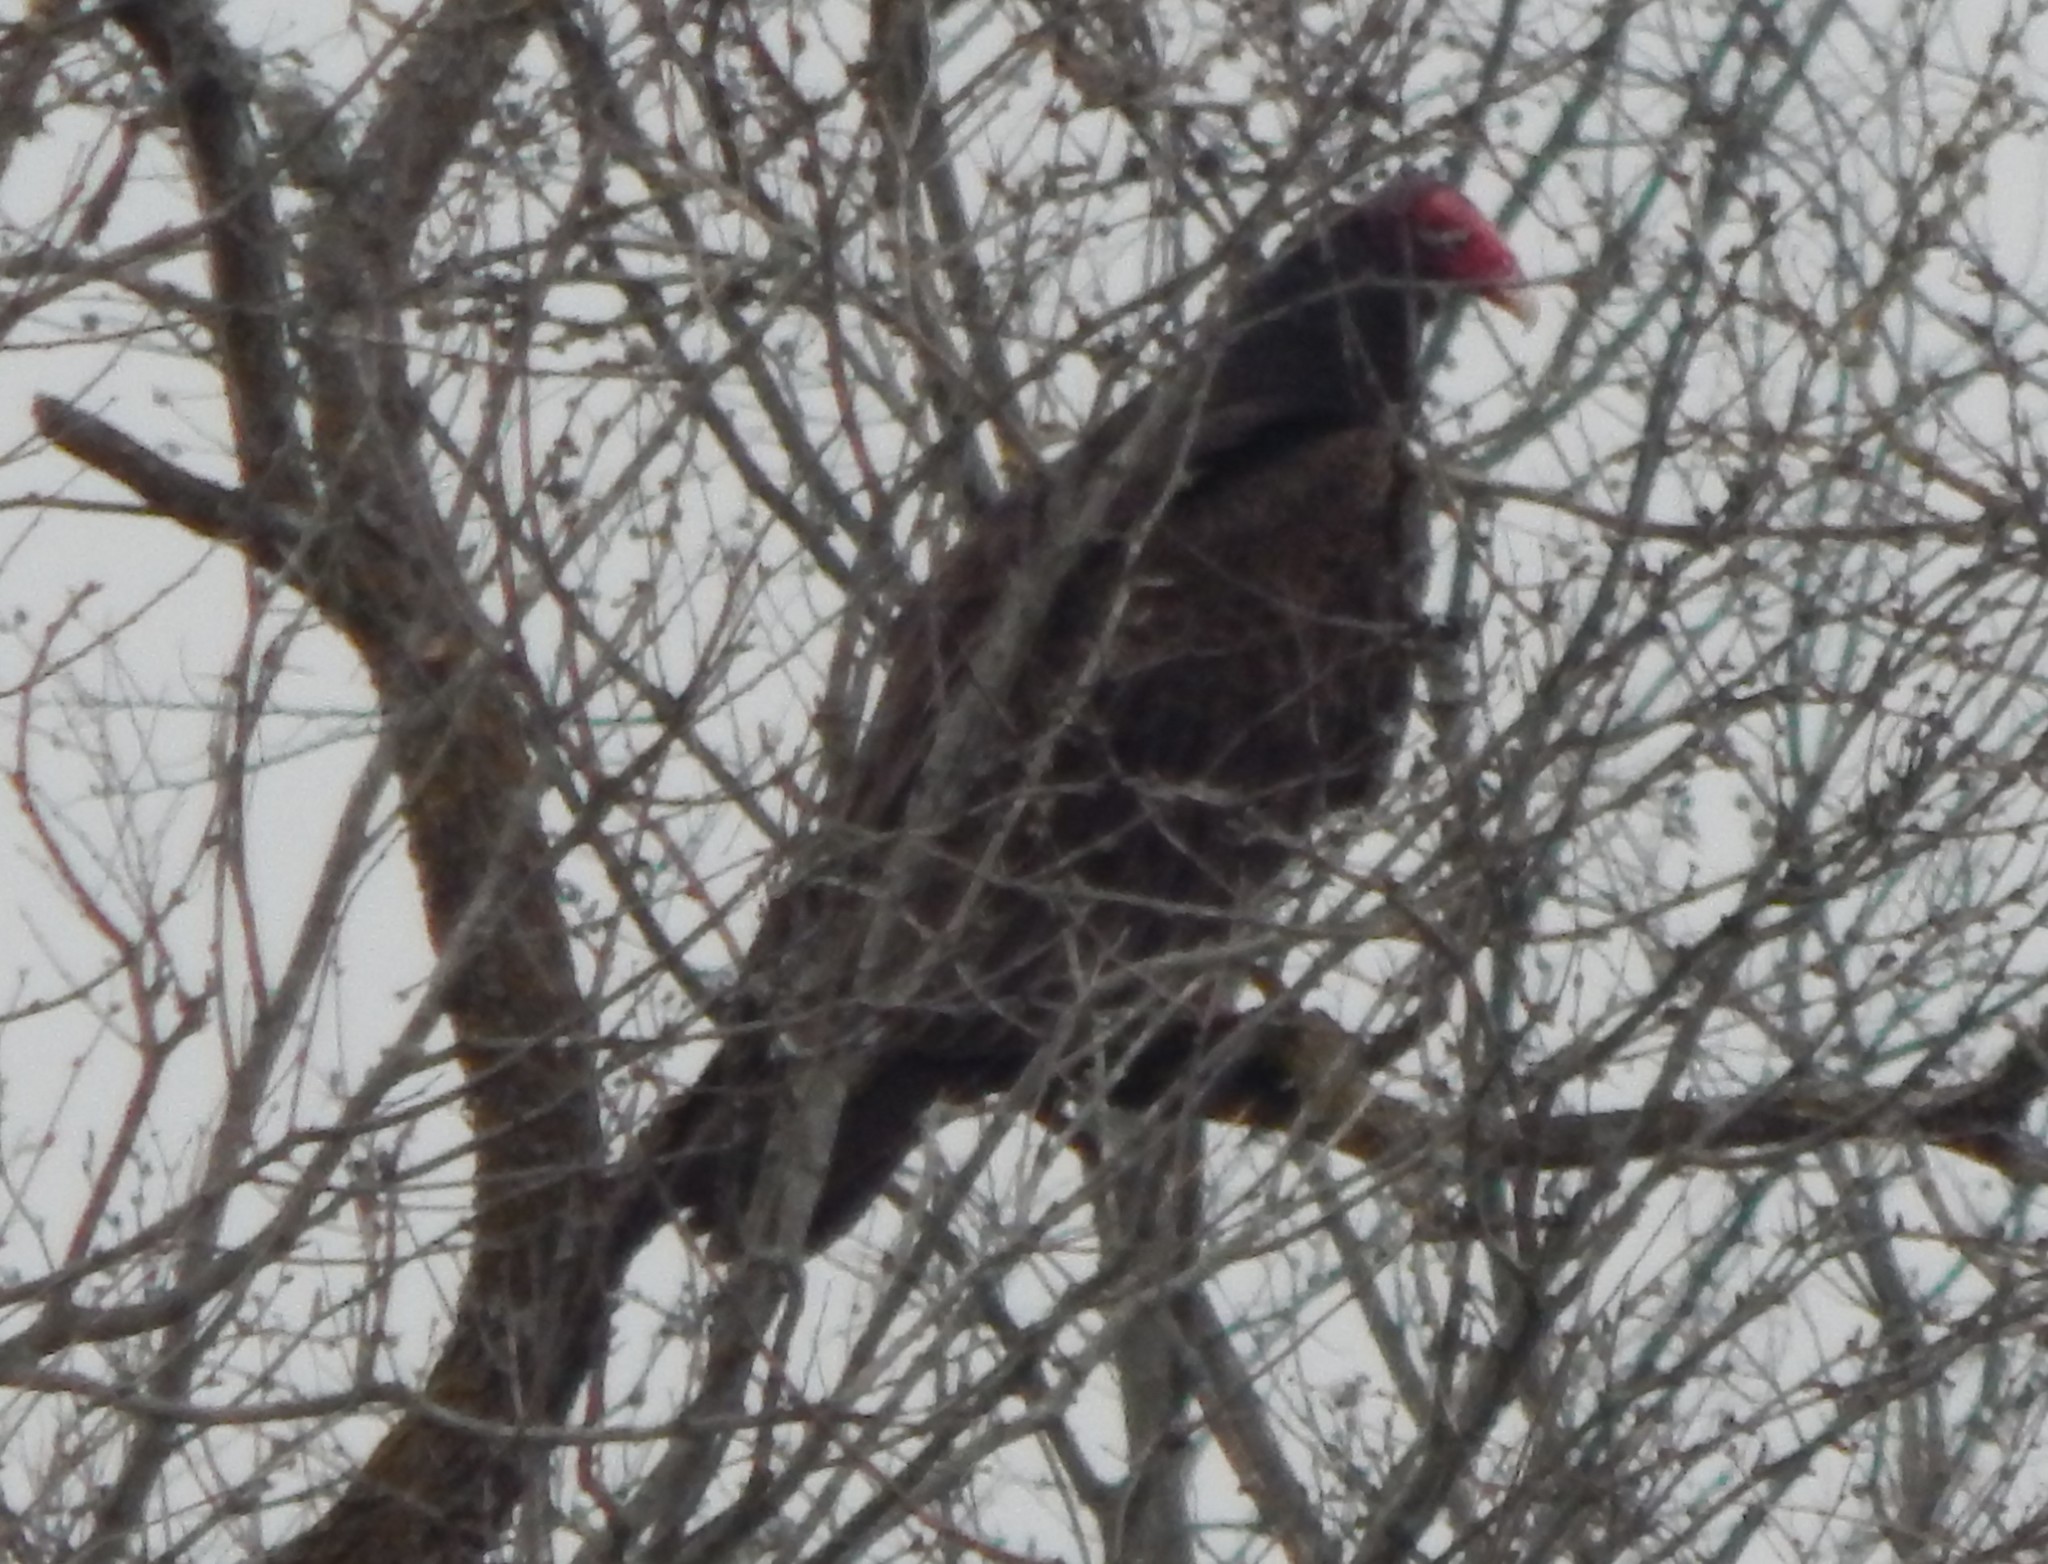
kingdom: Animalia
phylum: Chordata
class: Aves
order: Accipitriformes
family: Cathartidae
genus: Cathartes
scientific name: Cathartes aura
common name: Turkey vulture
